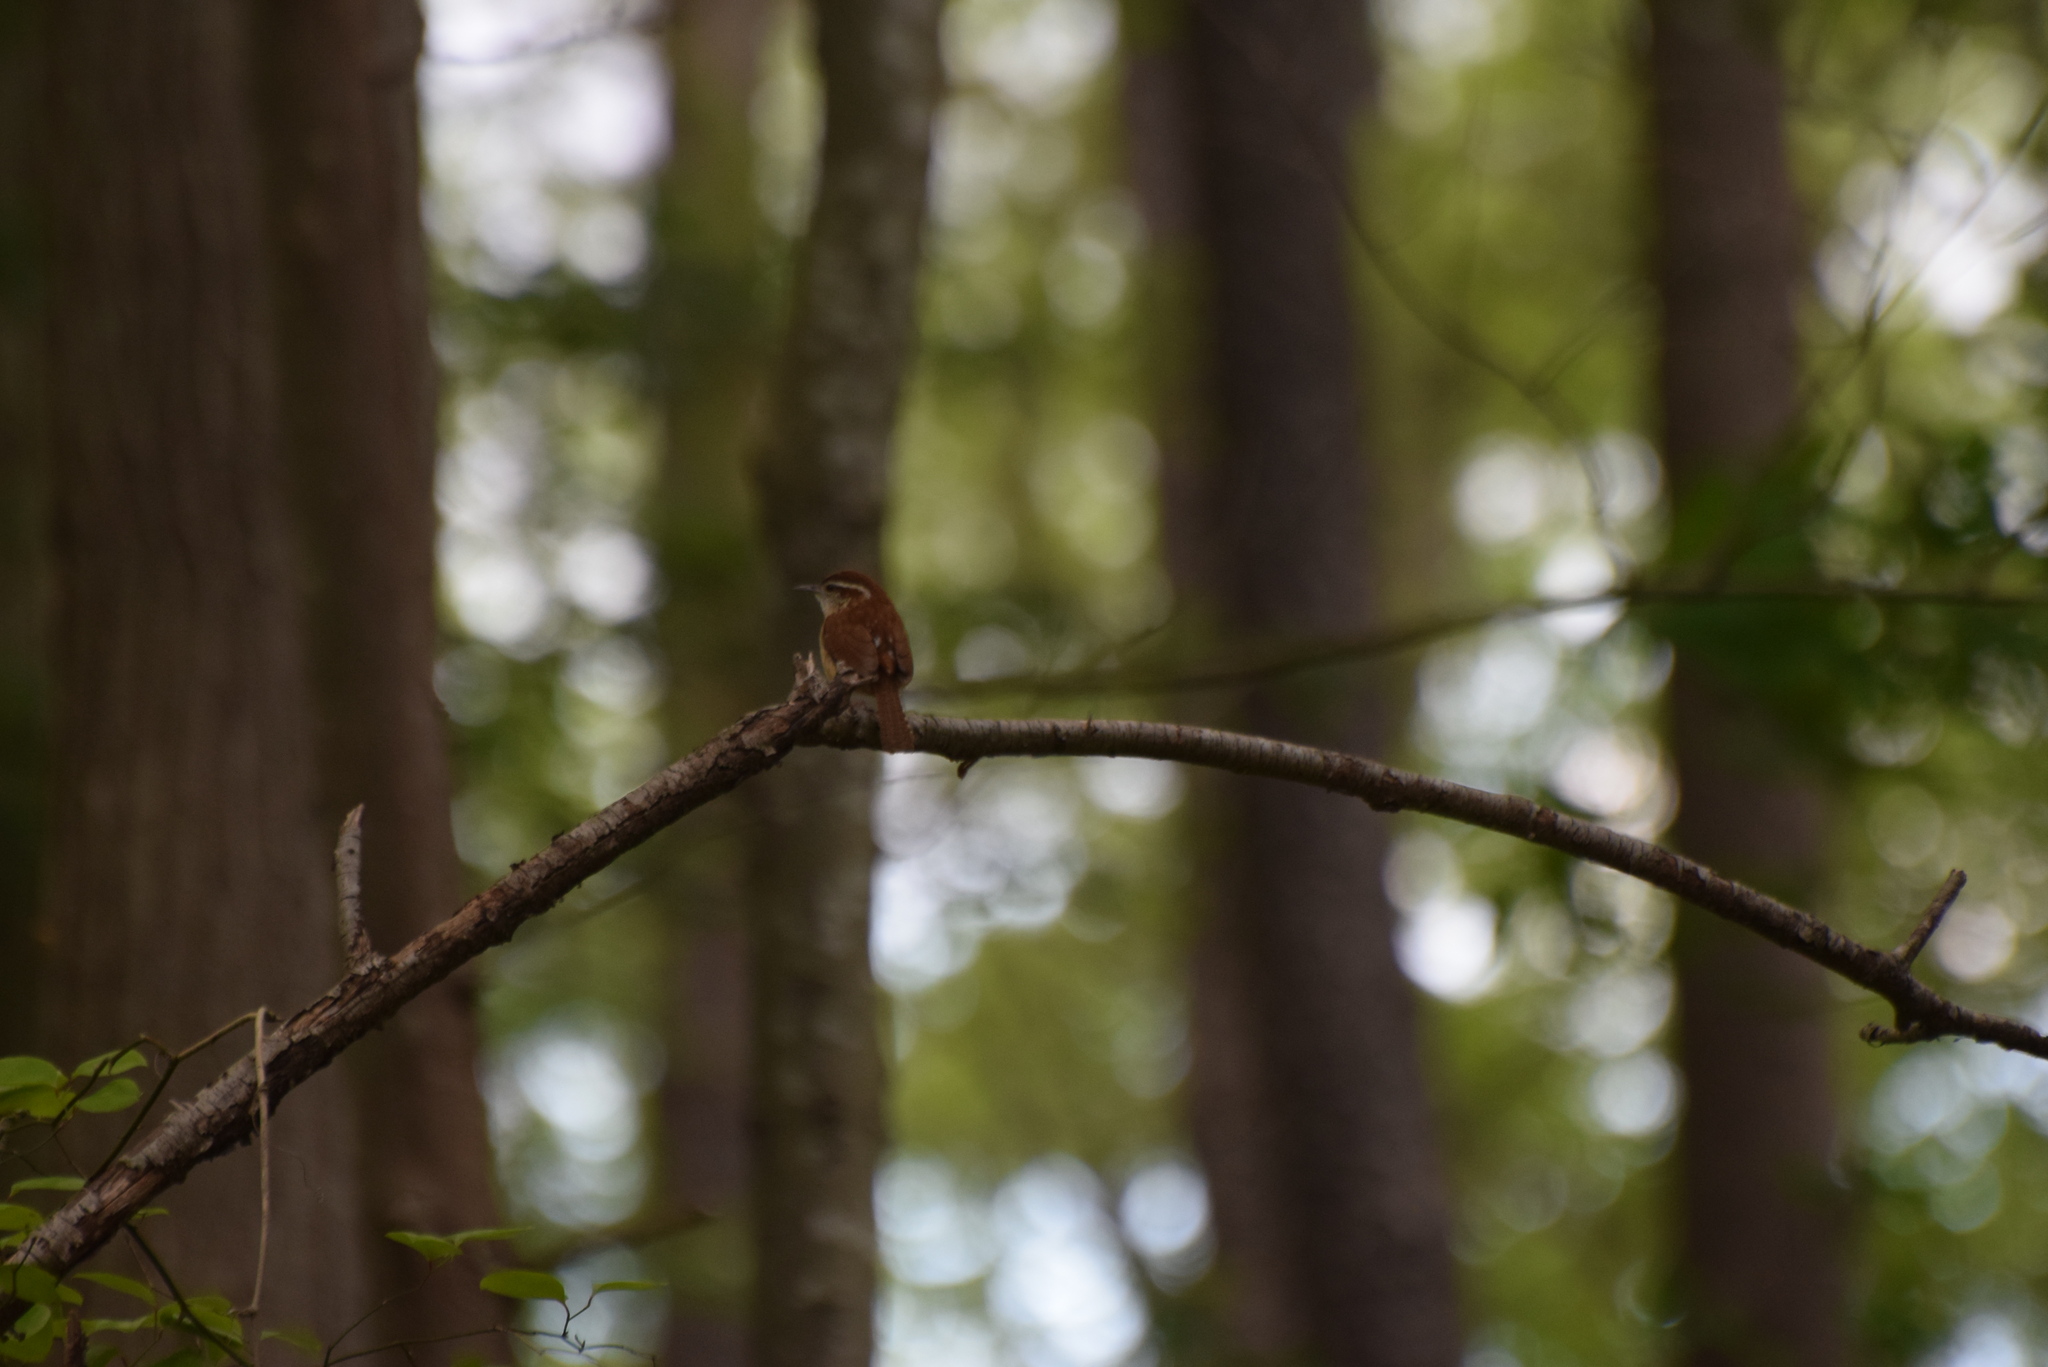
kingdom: Animalia
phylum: Chordata
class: Aves
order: Passeriformes
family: Troglodytidae
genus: Thryothorus
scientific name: Thryothorus ludovicianus
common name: Carolina wren
